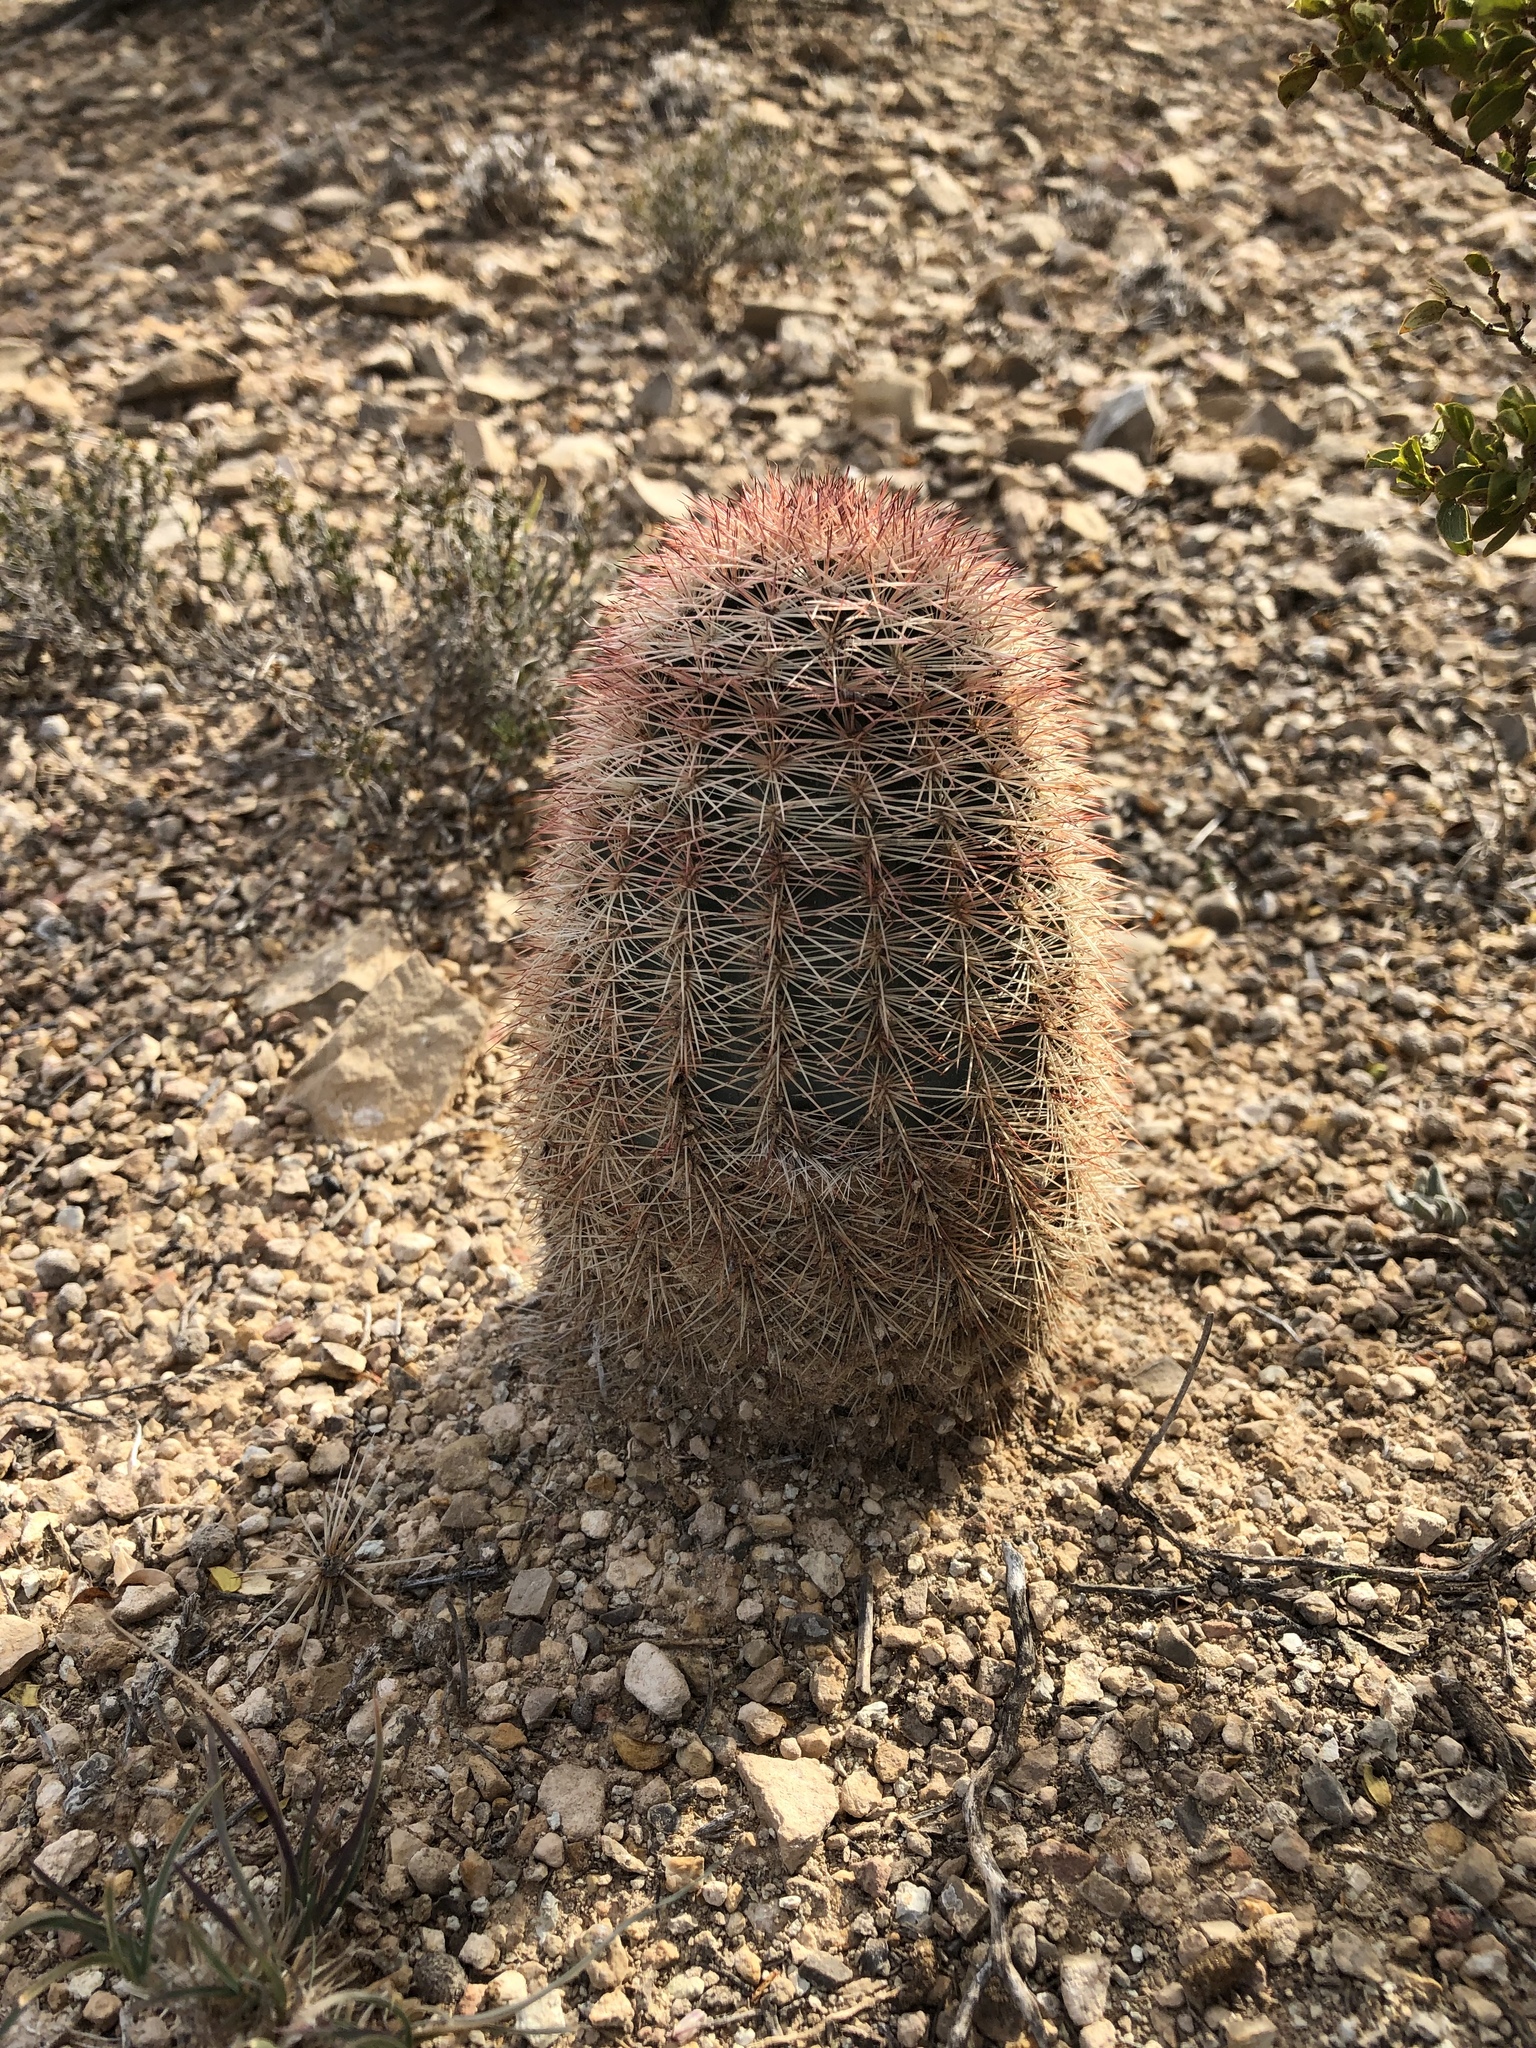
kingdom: Plantae
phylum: Tracheophyta
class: Magnoliopsida
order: Caryophyllales
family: Cactaceae
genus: Echinocereus
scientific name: Echinocereus dasyacanthus
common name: Spiny hedgehog cactus
